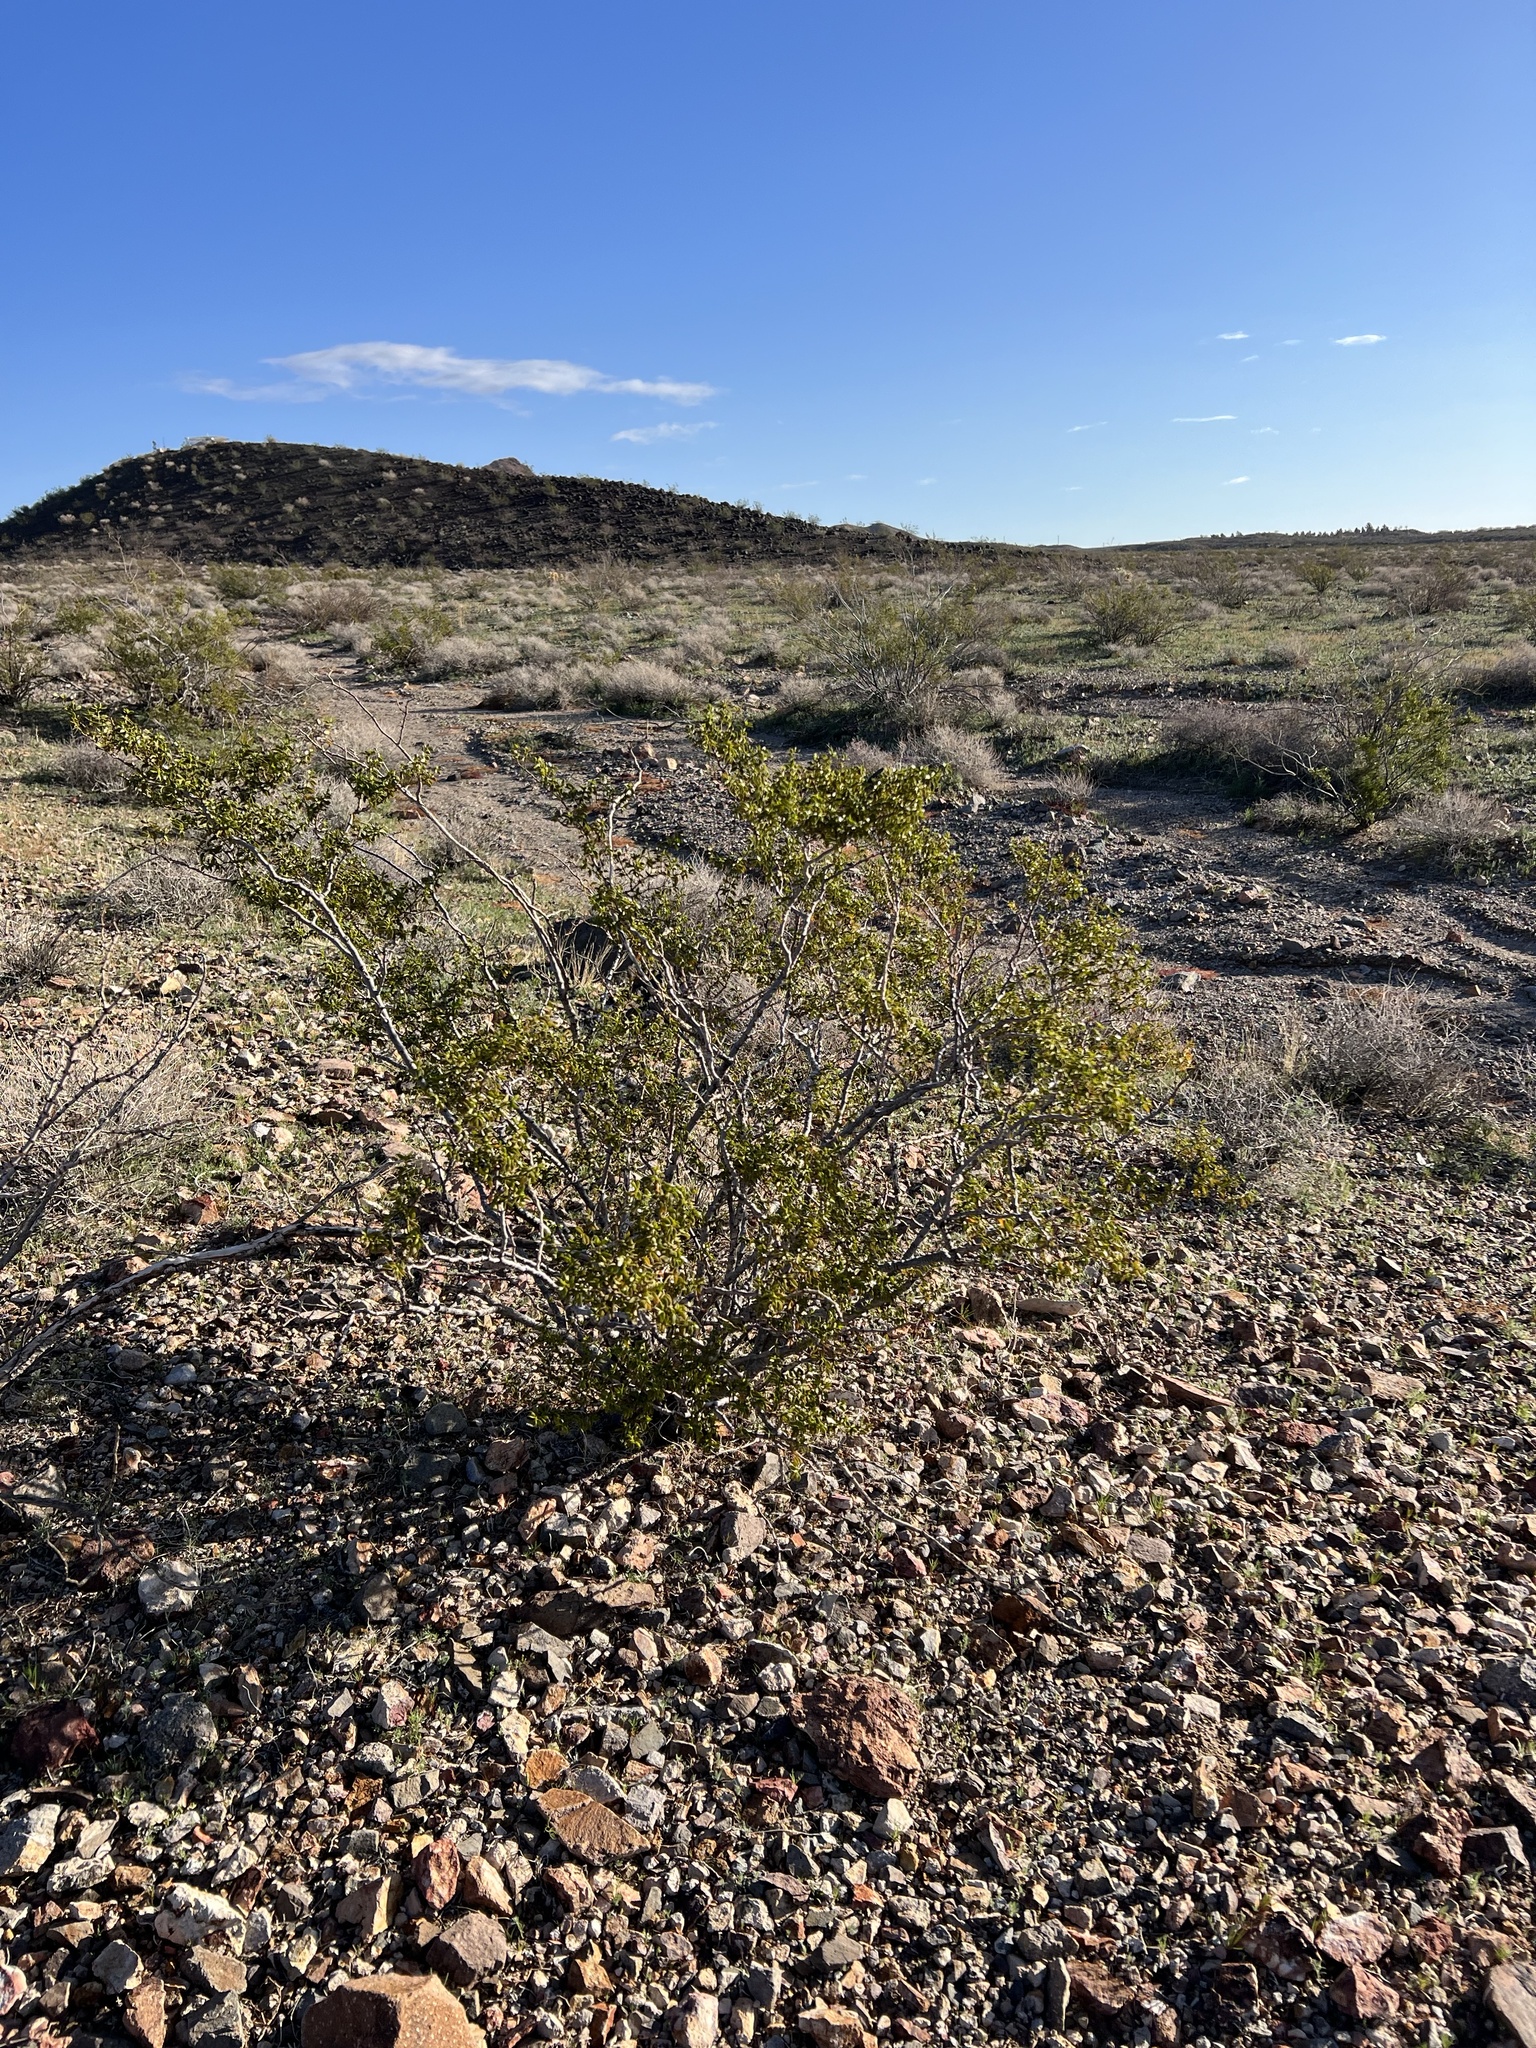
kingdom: Plantae
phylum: Tracheophyta
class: Magnoliopsida
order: Zygophyllales
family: Zygophyllaceae
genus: Larrea
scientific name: Larrea tridentata
